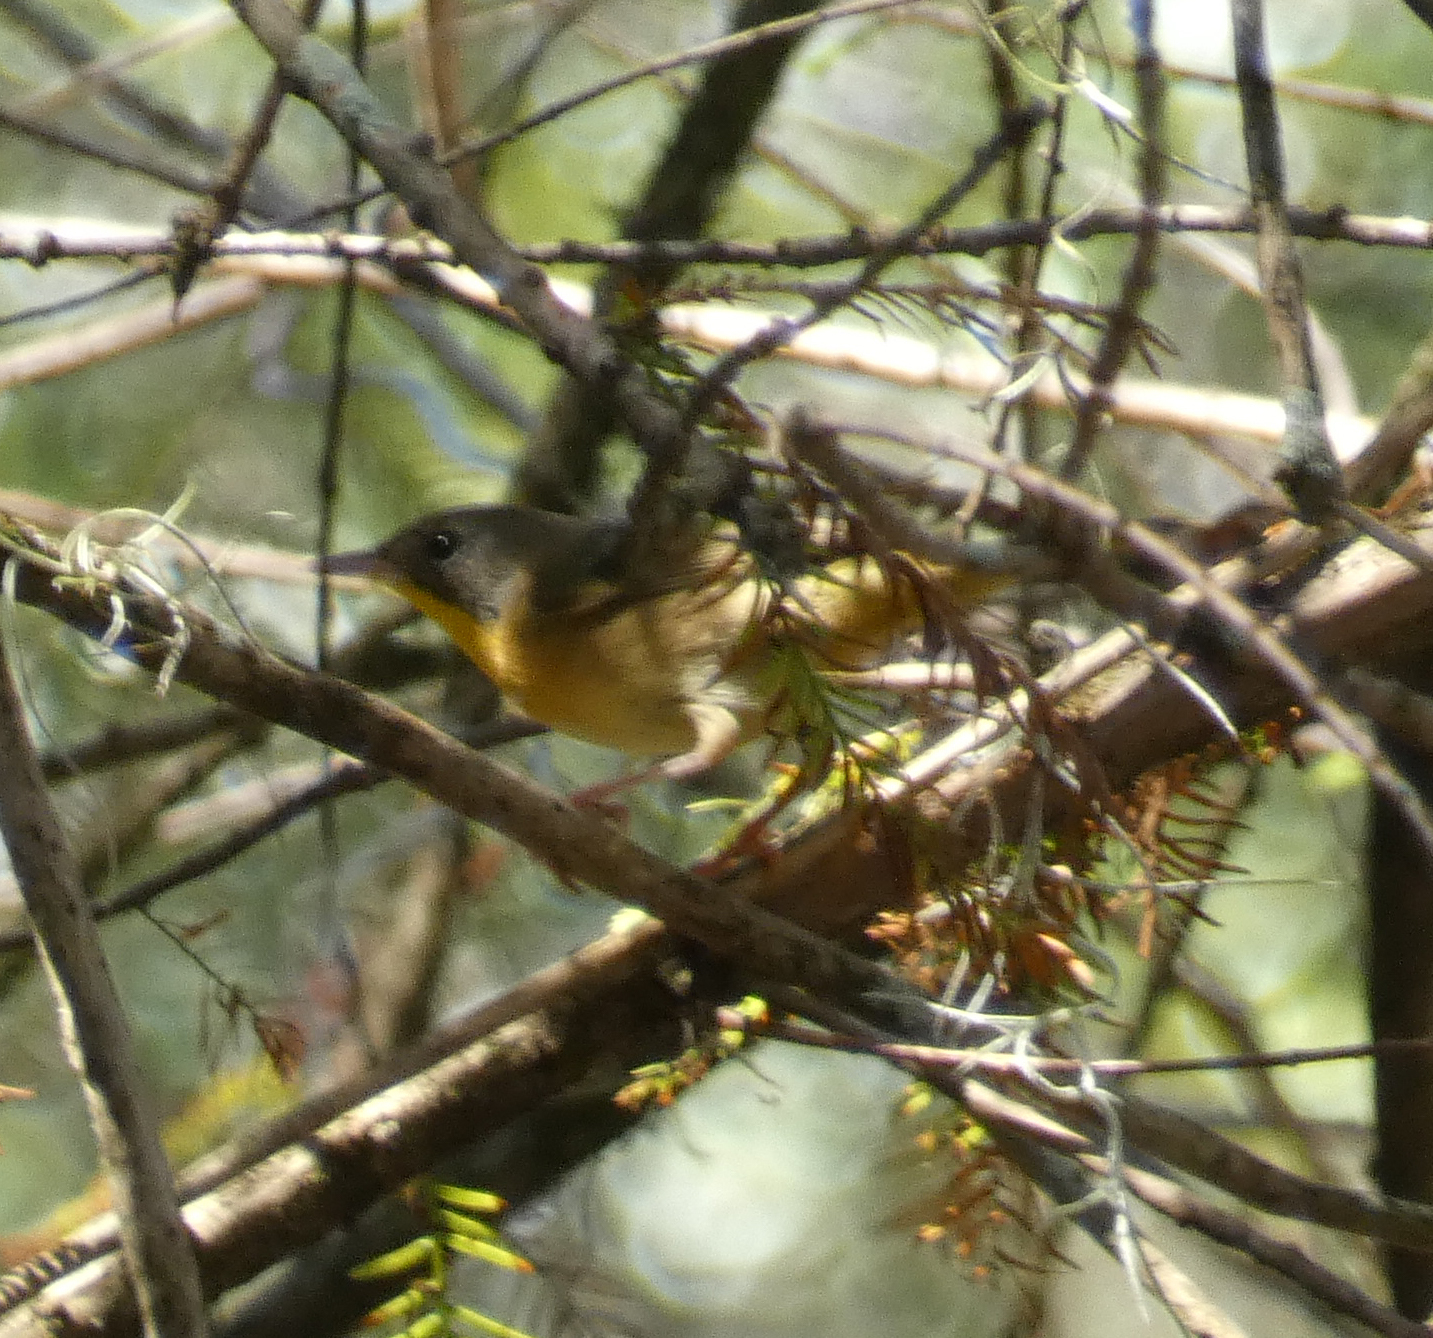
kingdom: Animalia
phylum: Chordata
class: Aves
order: Passeriformes
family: Parulidae
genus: Geothlypis
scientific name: Geothlypis trichas
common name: Common yellowthroat
